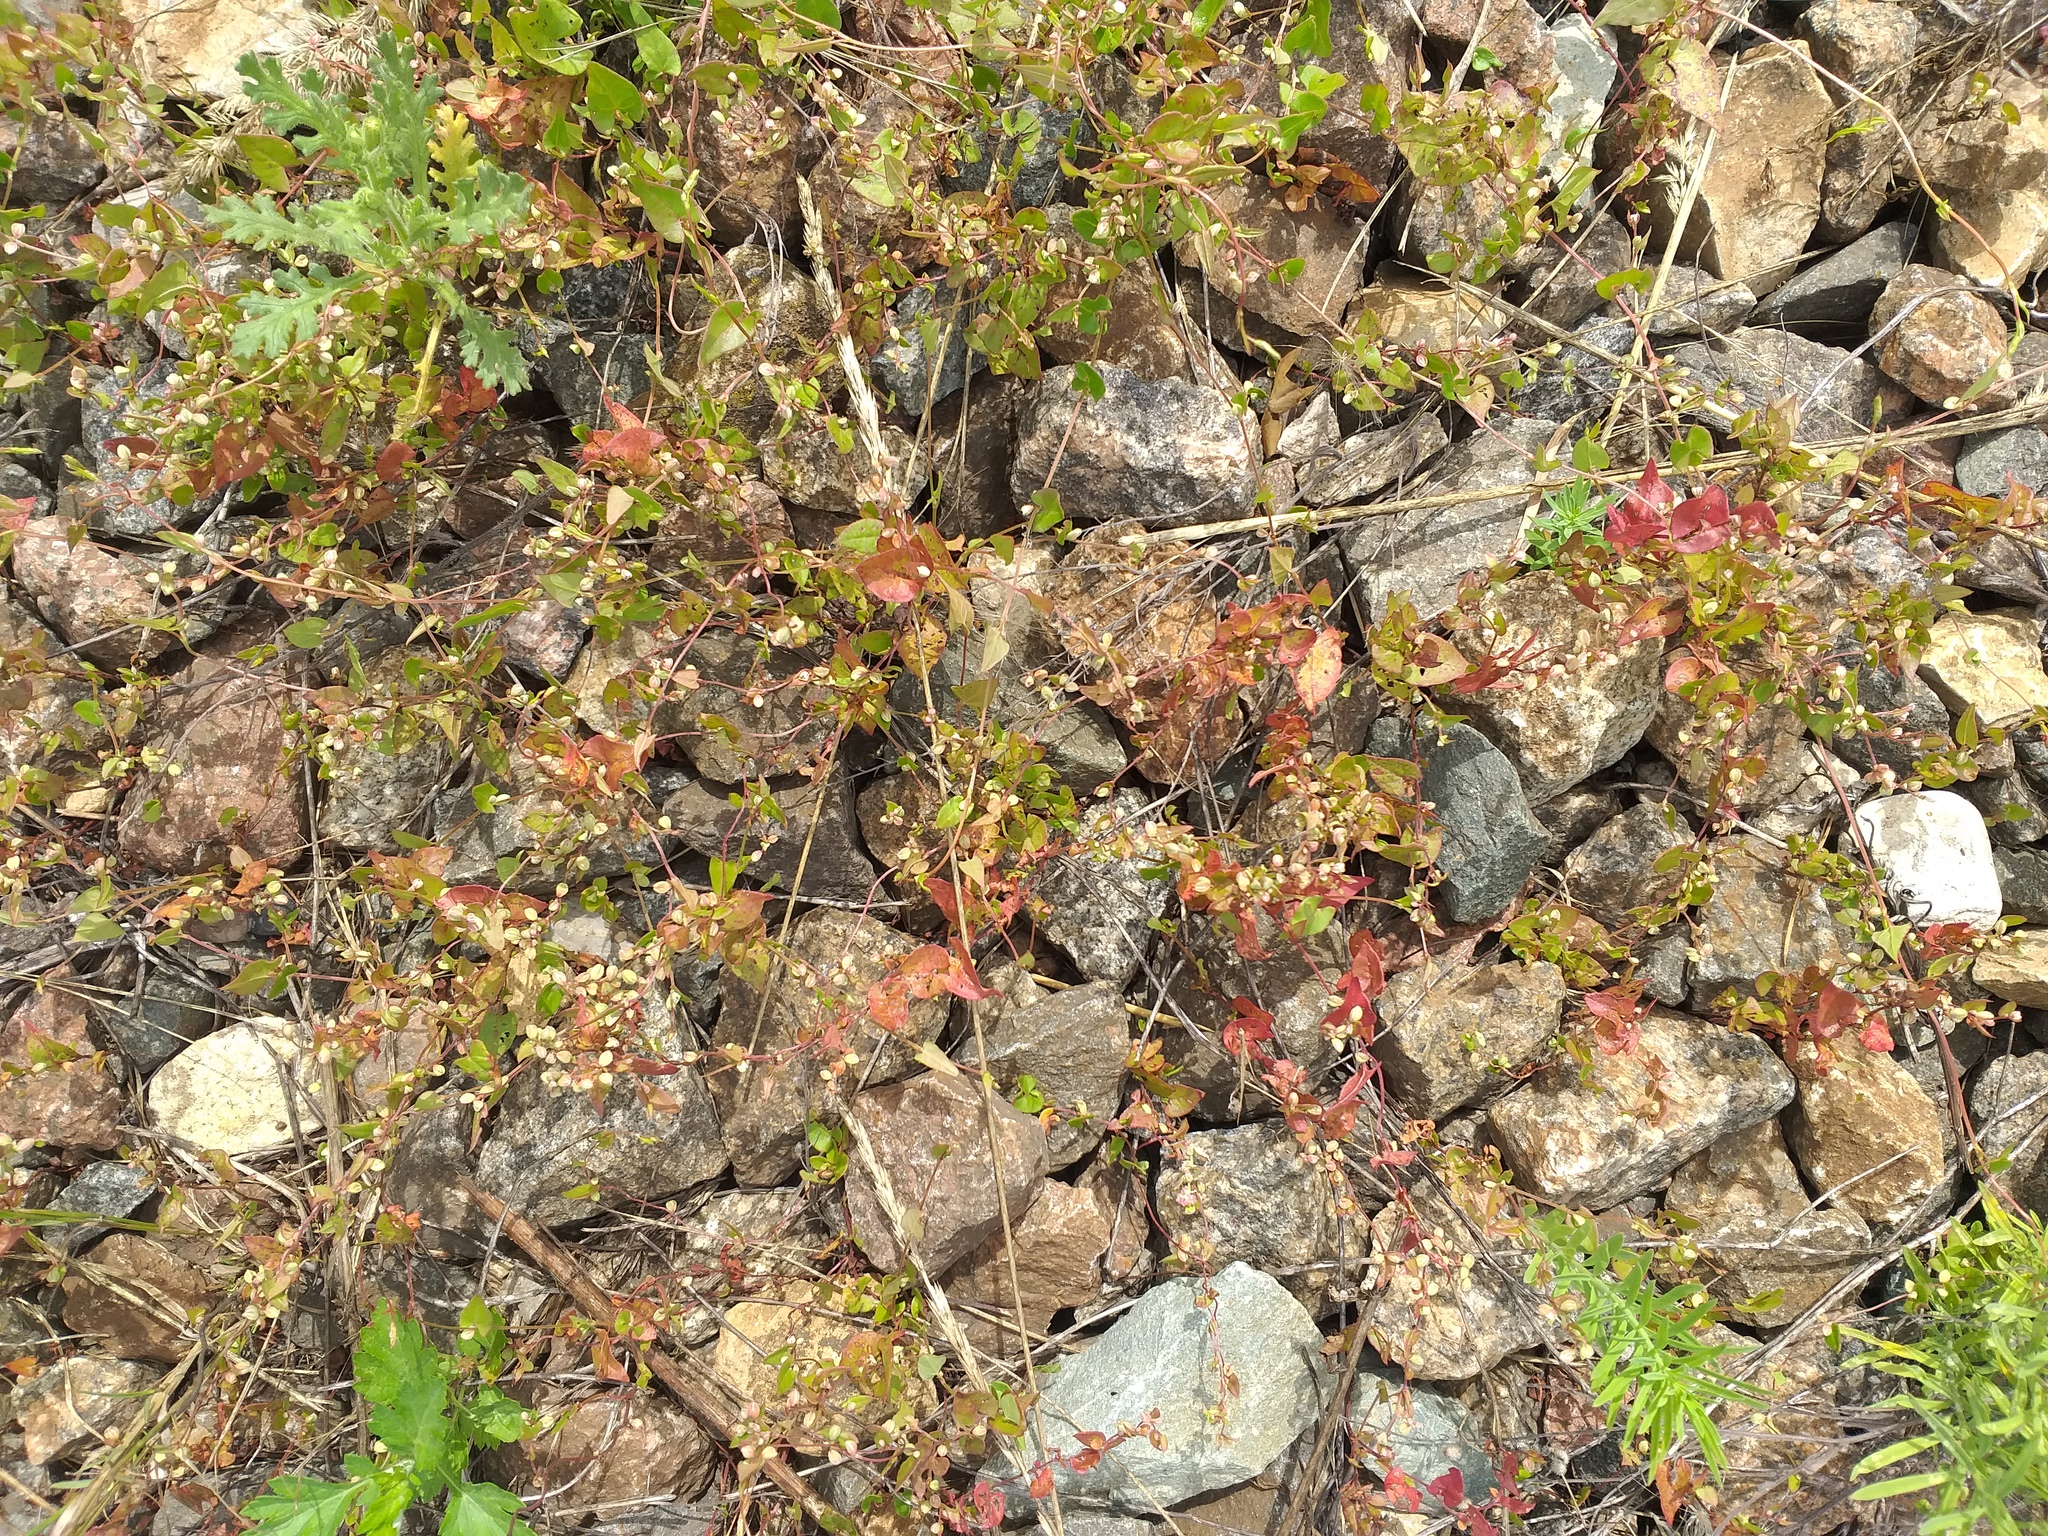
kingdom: Plantae
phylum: Tracheophyta
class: Magnoliopsida
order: Caryophyllales
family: Polygonaceae
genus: Fallopia
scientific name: Fallopia convolvulus
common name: Black bindweed
